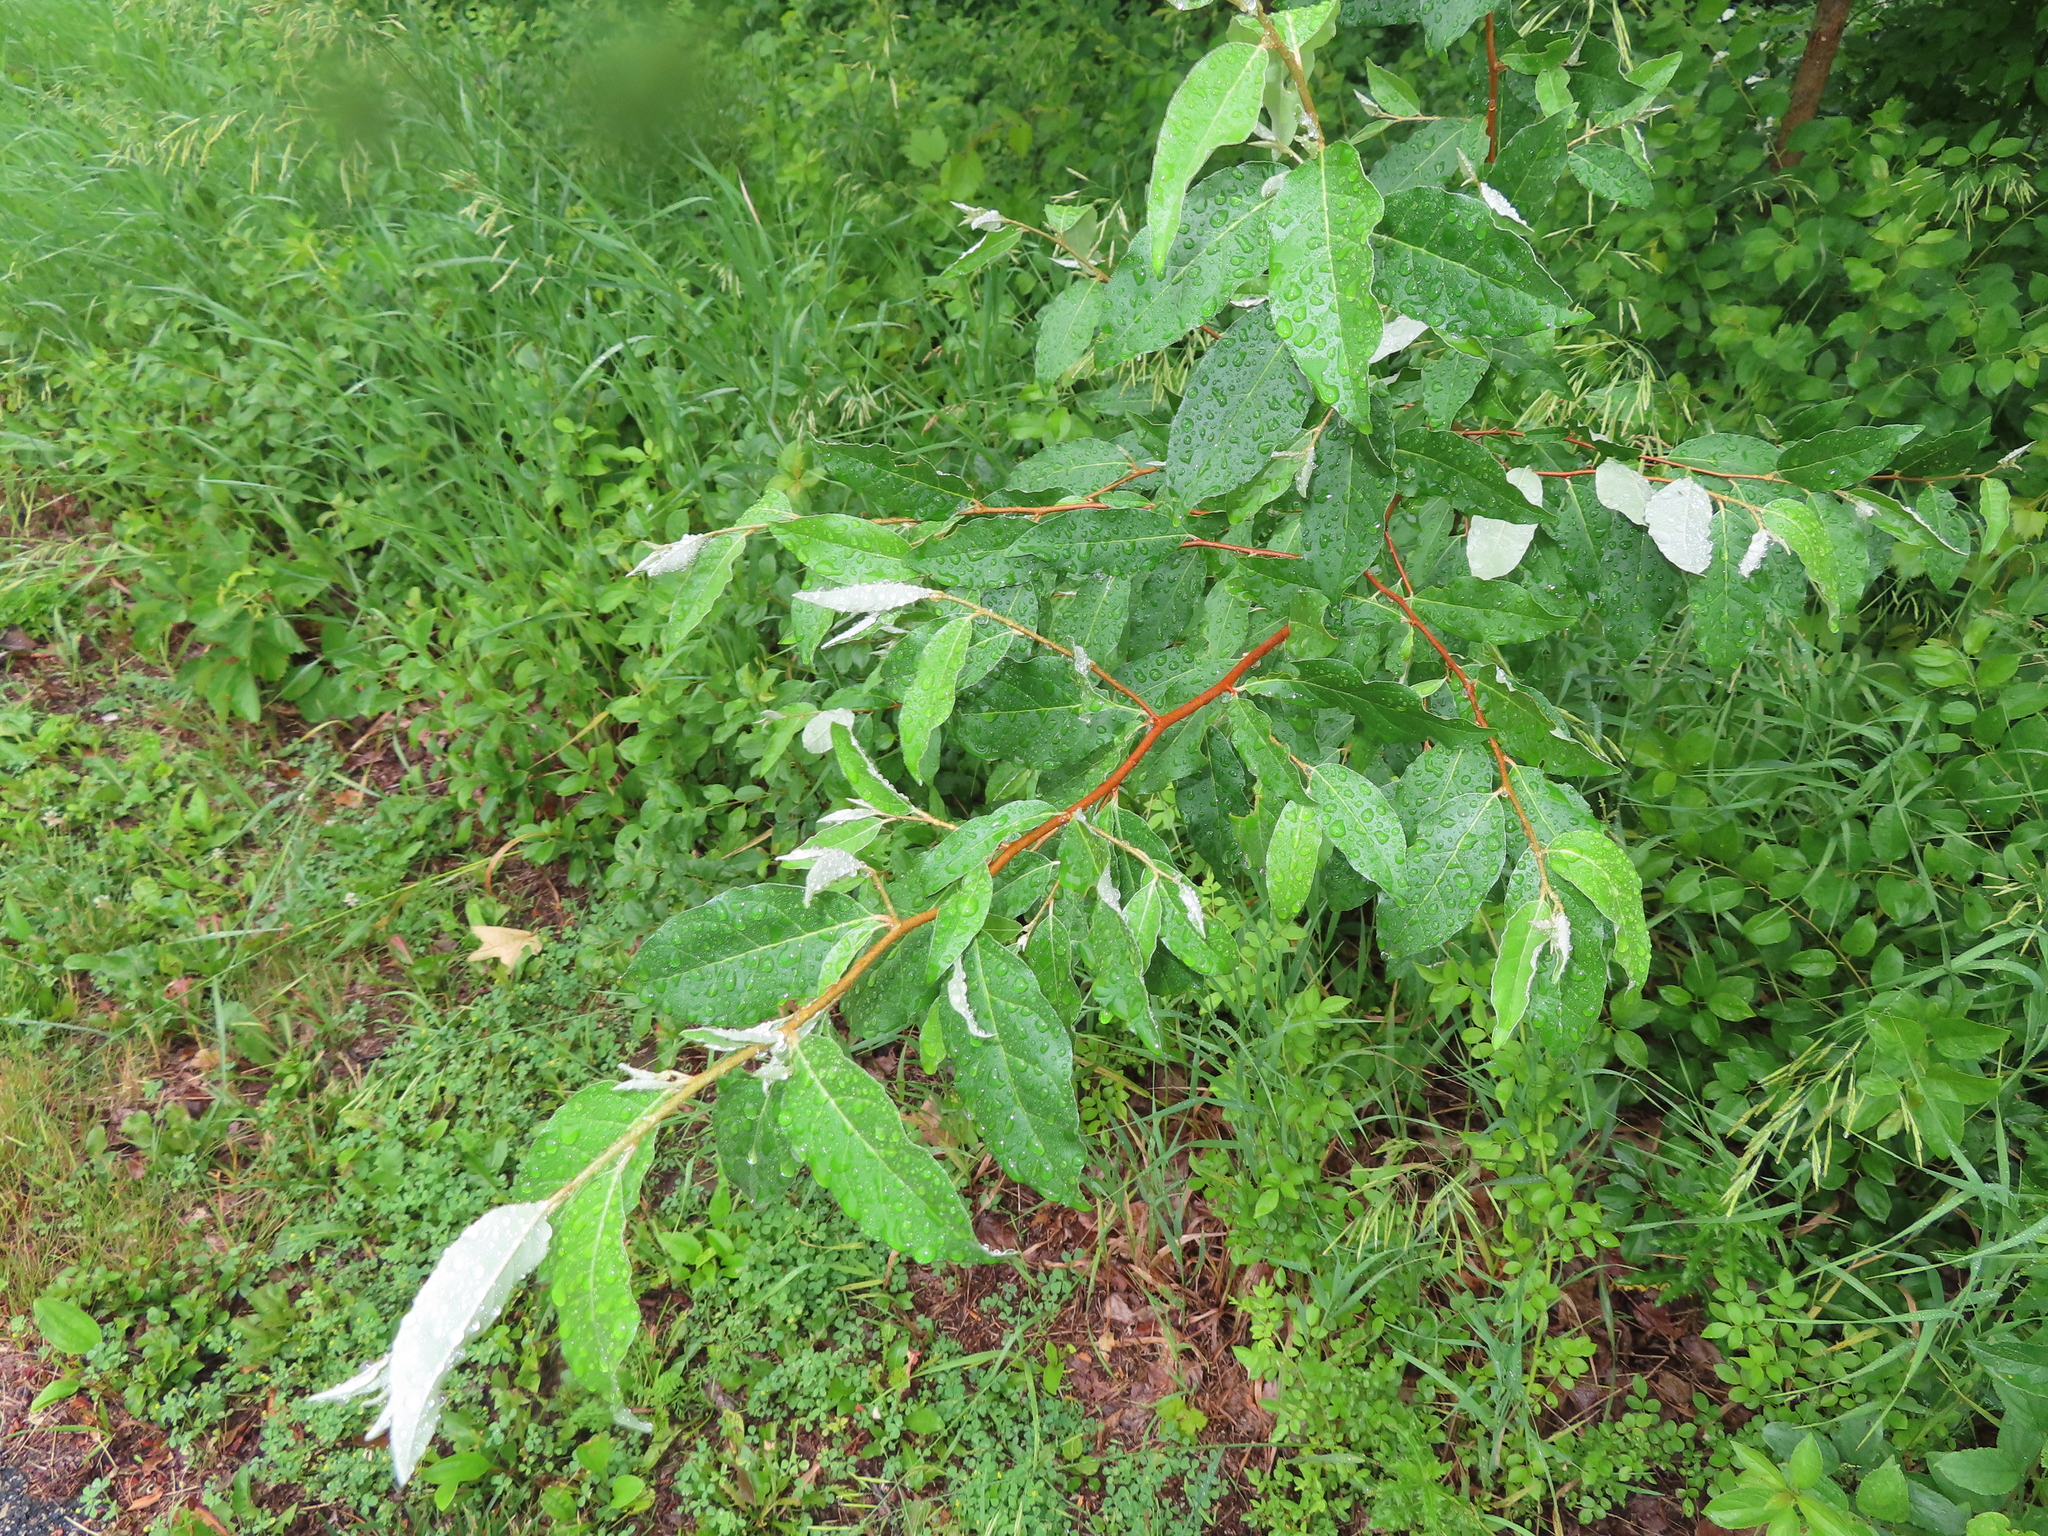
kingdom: Plantae
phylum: Tracheophyta
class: Magnoliopsida
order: Rosales
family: Elaeagnaceae
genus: Elaeagnus
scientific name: Elaeagnus umbellata
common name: Autumn olive
